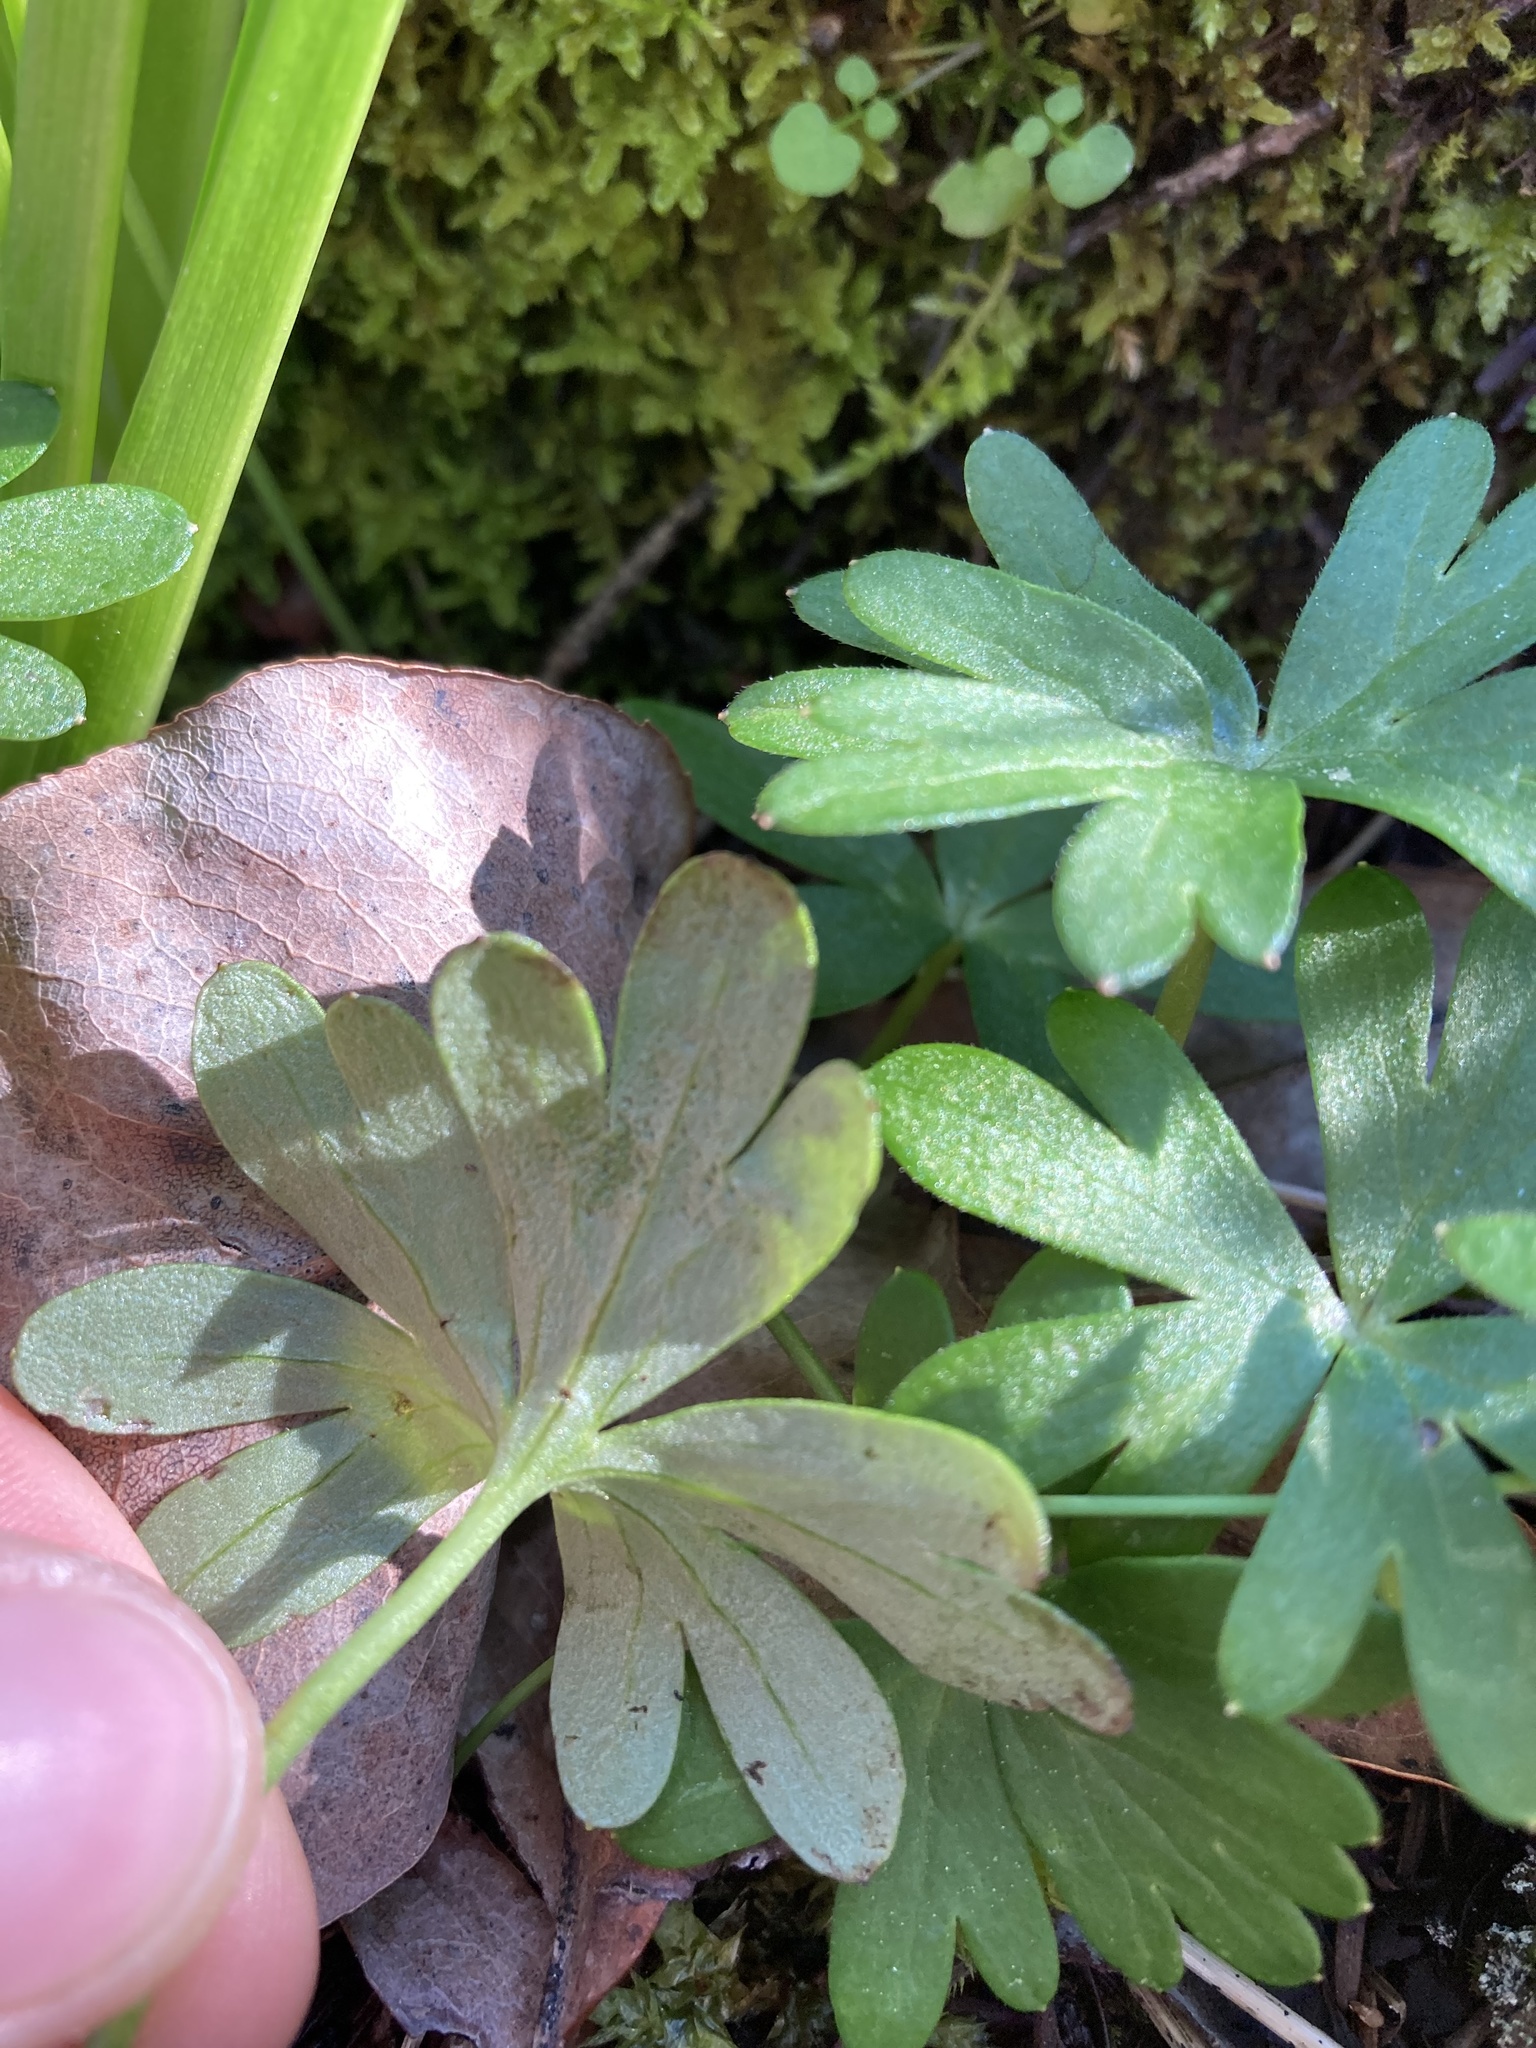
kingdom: Plantae
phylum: Tracheophyta
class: Magnoliopsida
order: Ranunculales
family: Ranunculaceae
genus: Delphinium
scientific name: Delphinium menziesii
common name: Menzies's larkspur
